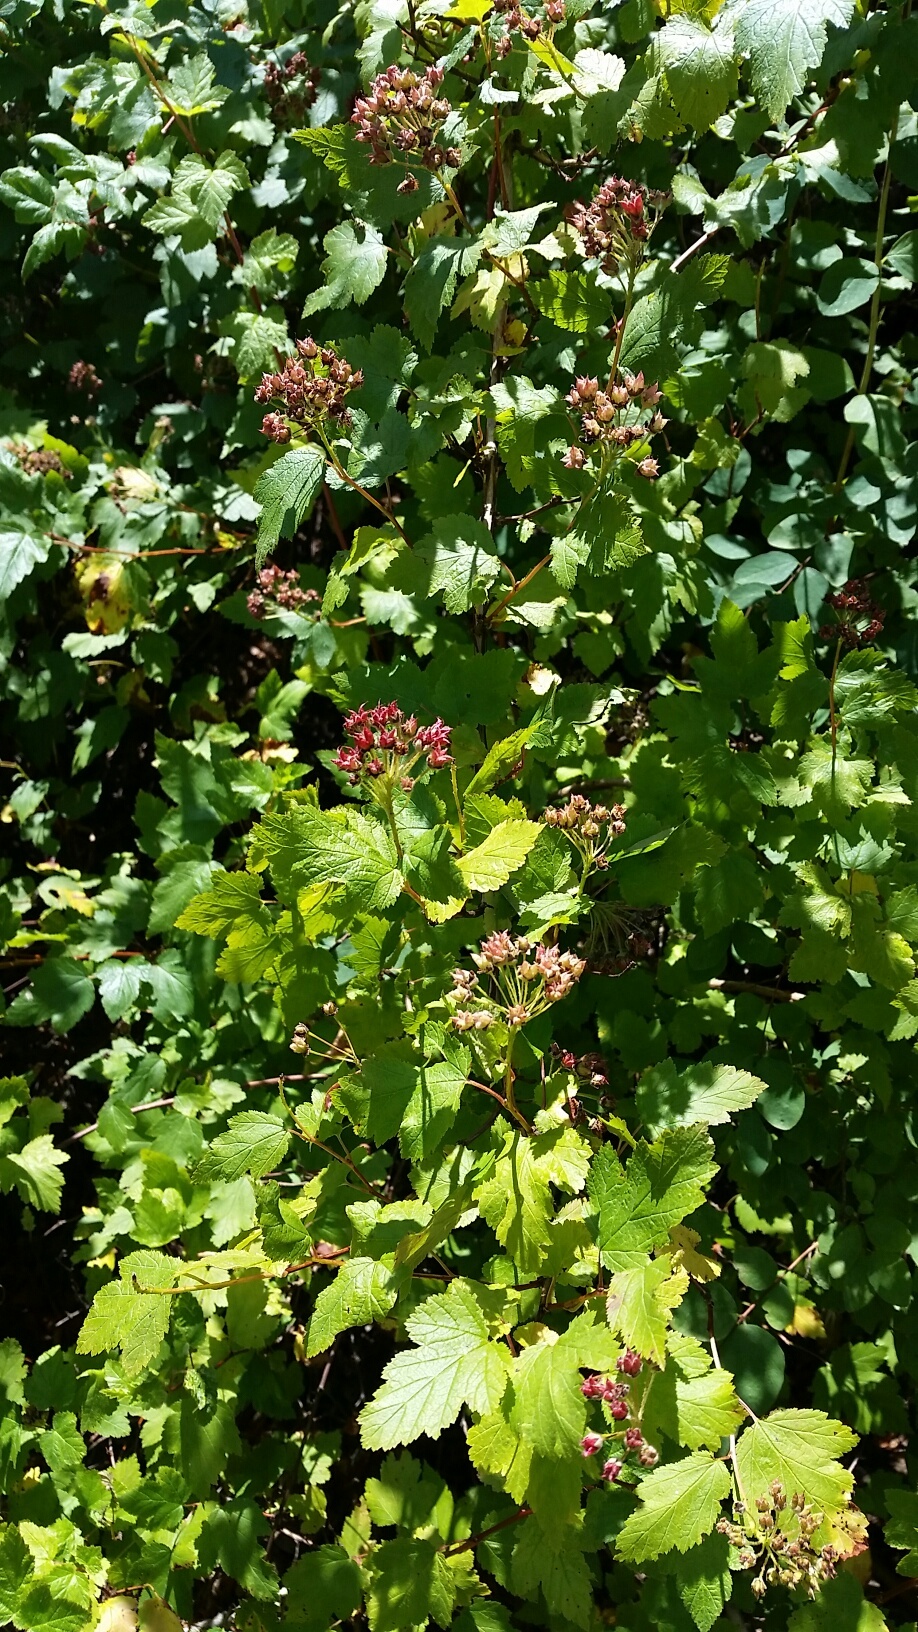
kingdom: Plantae
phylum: Tracheophyta
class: Magnoliopsida
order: Rosales
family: Rosaceae
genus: Physocarpus
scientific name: Physocarpus capitatus
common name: Pacific ninebark
